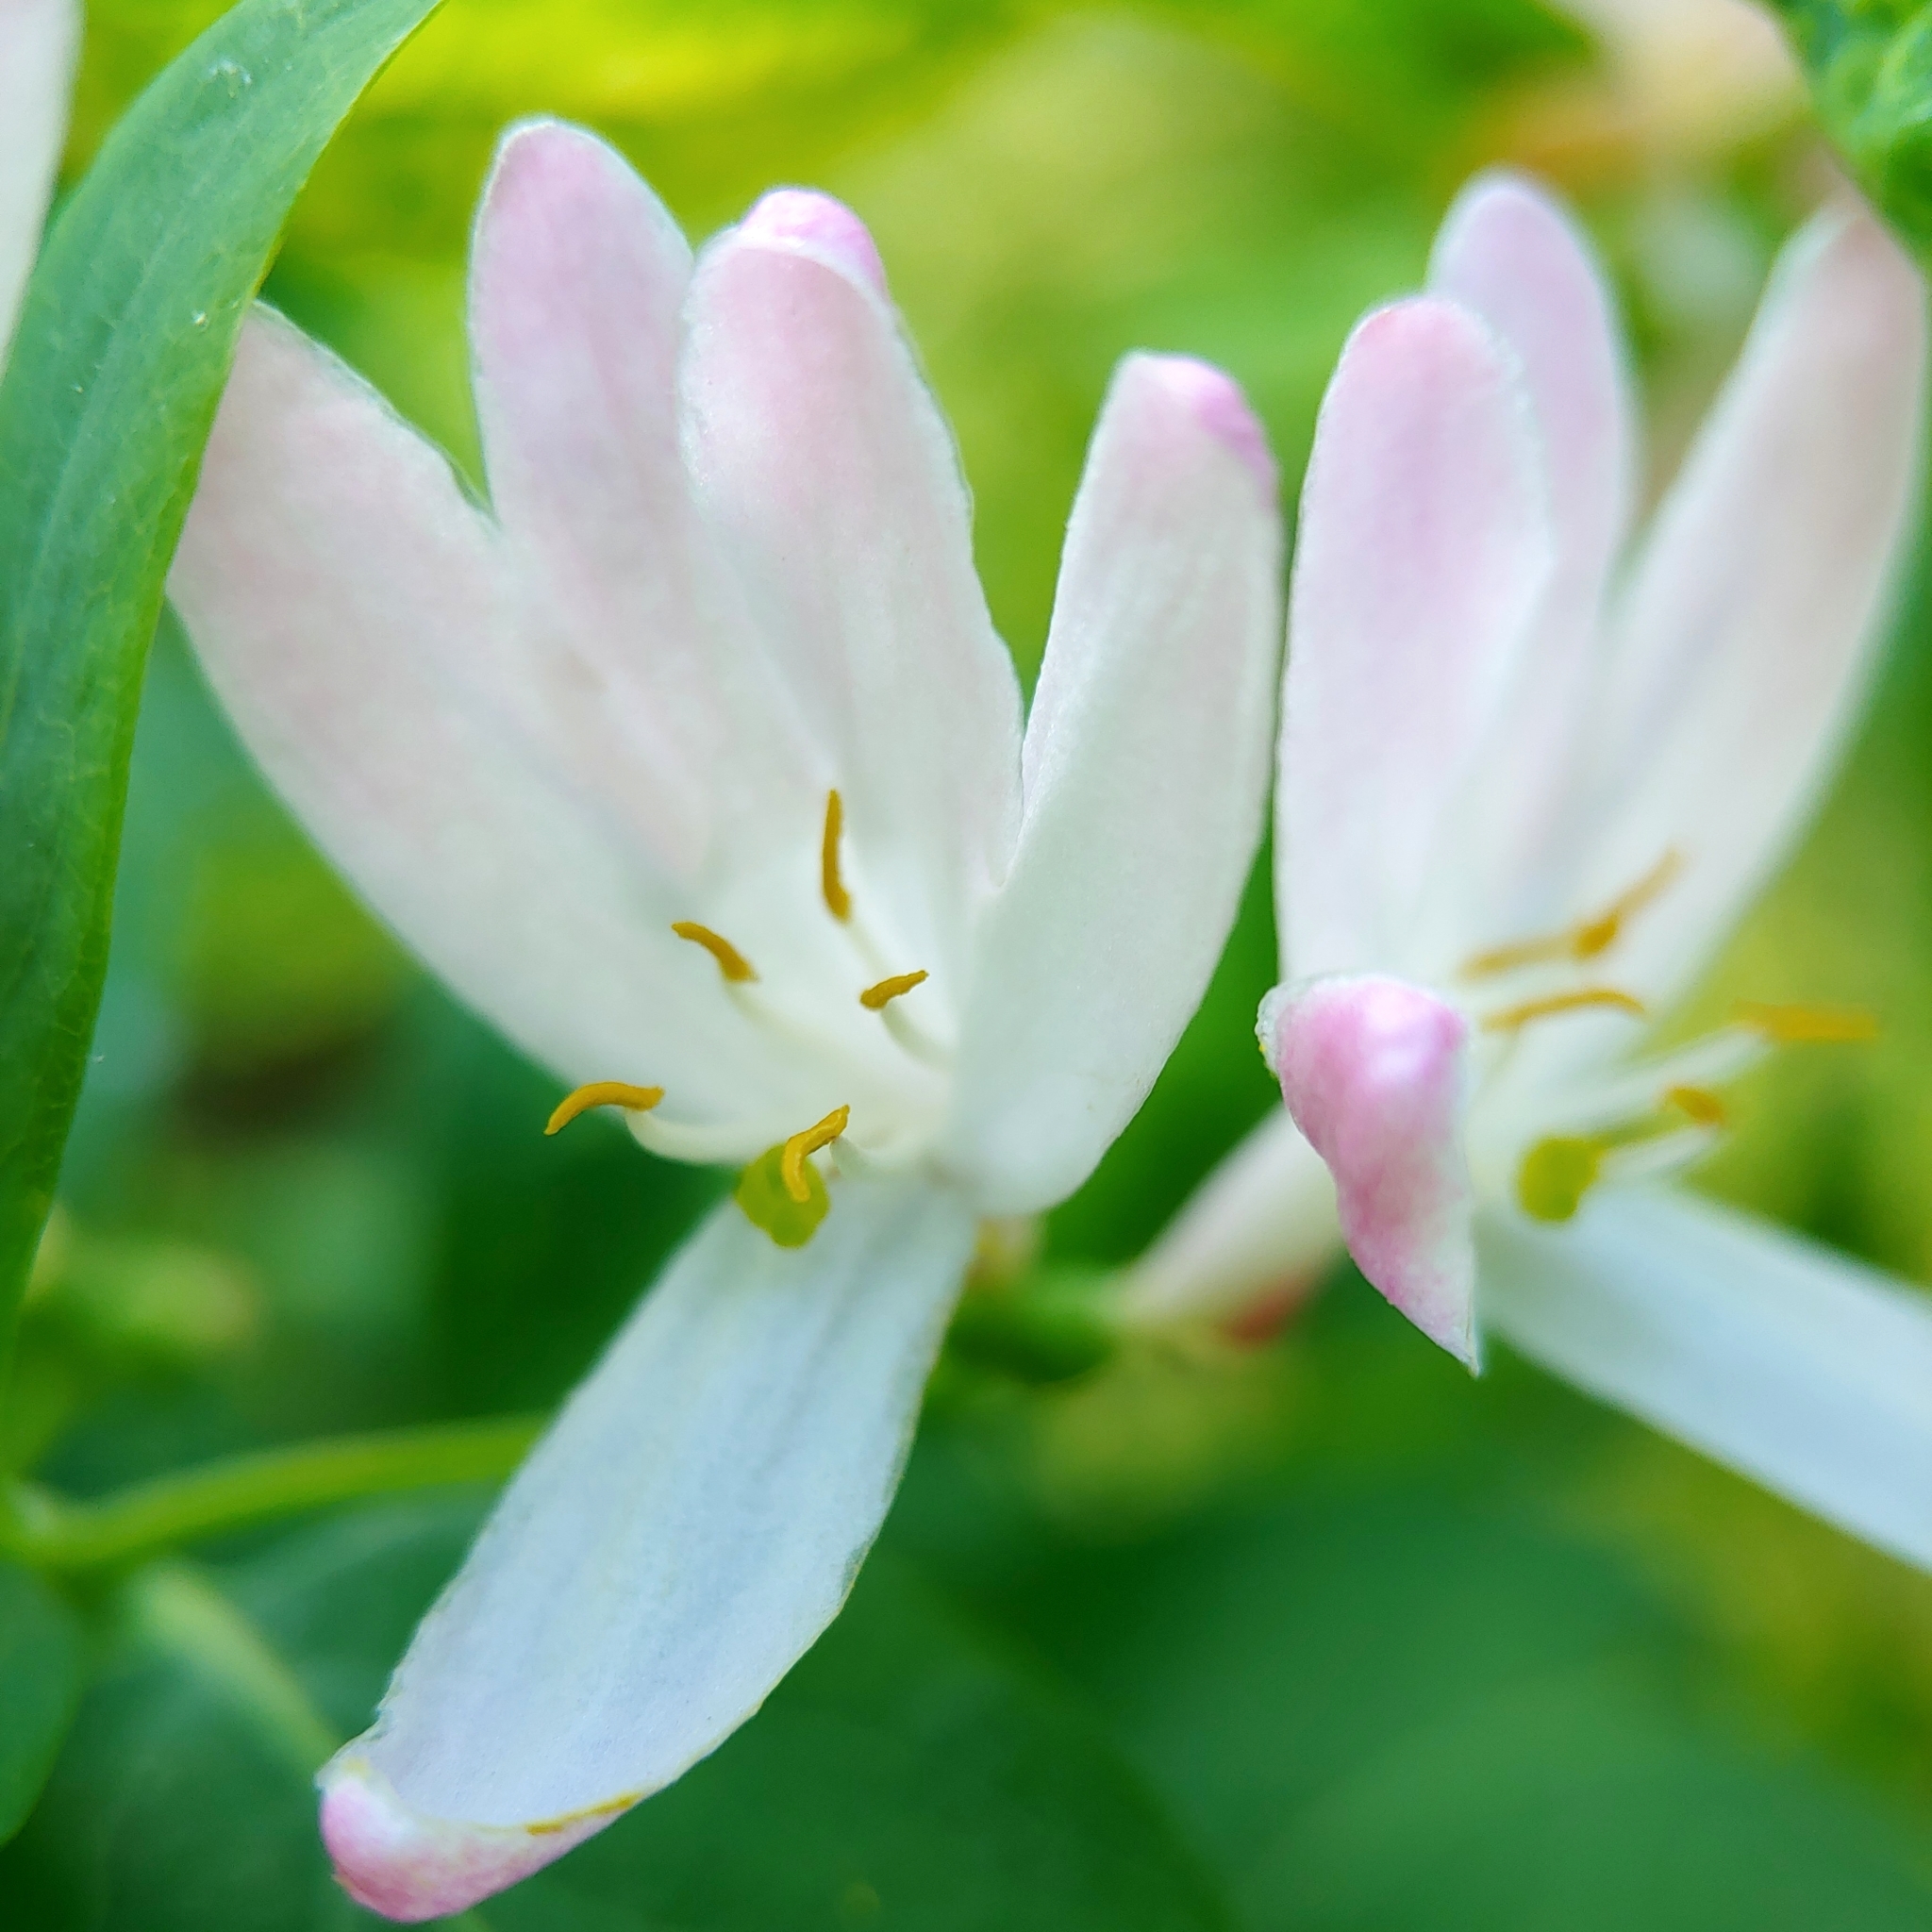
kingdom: Plantae
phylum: Tracheophyta
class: Magnoliopsida
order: Dipsacales
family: Caprifoliaceae
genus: Lonicera
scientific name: Lonicera tatarica
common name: Tatarian honeysuckle
